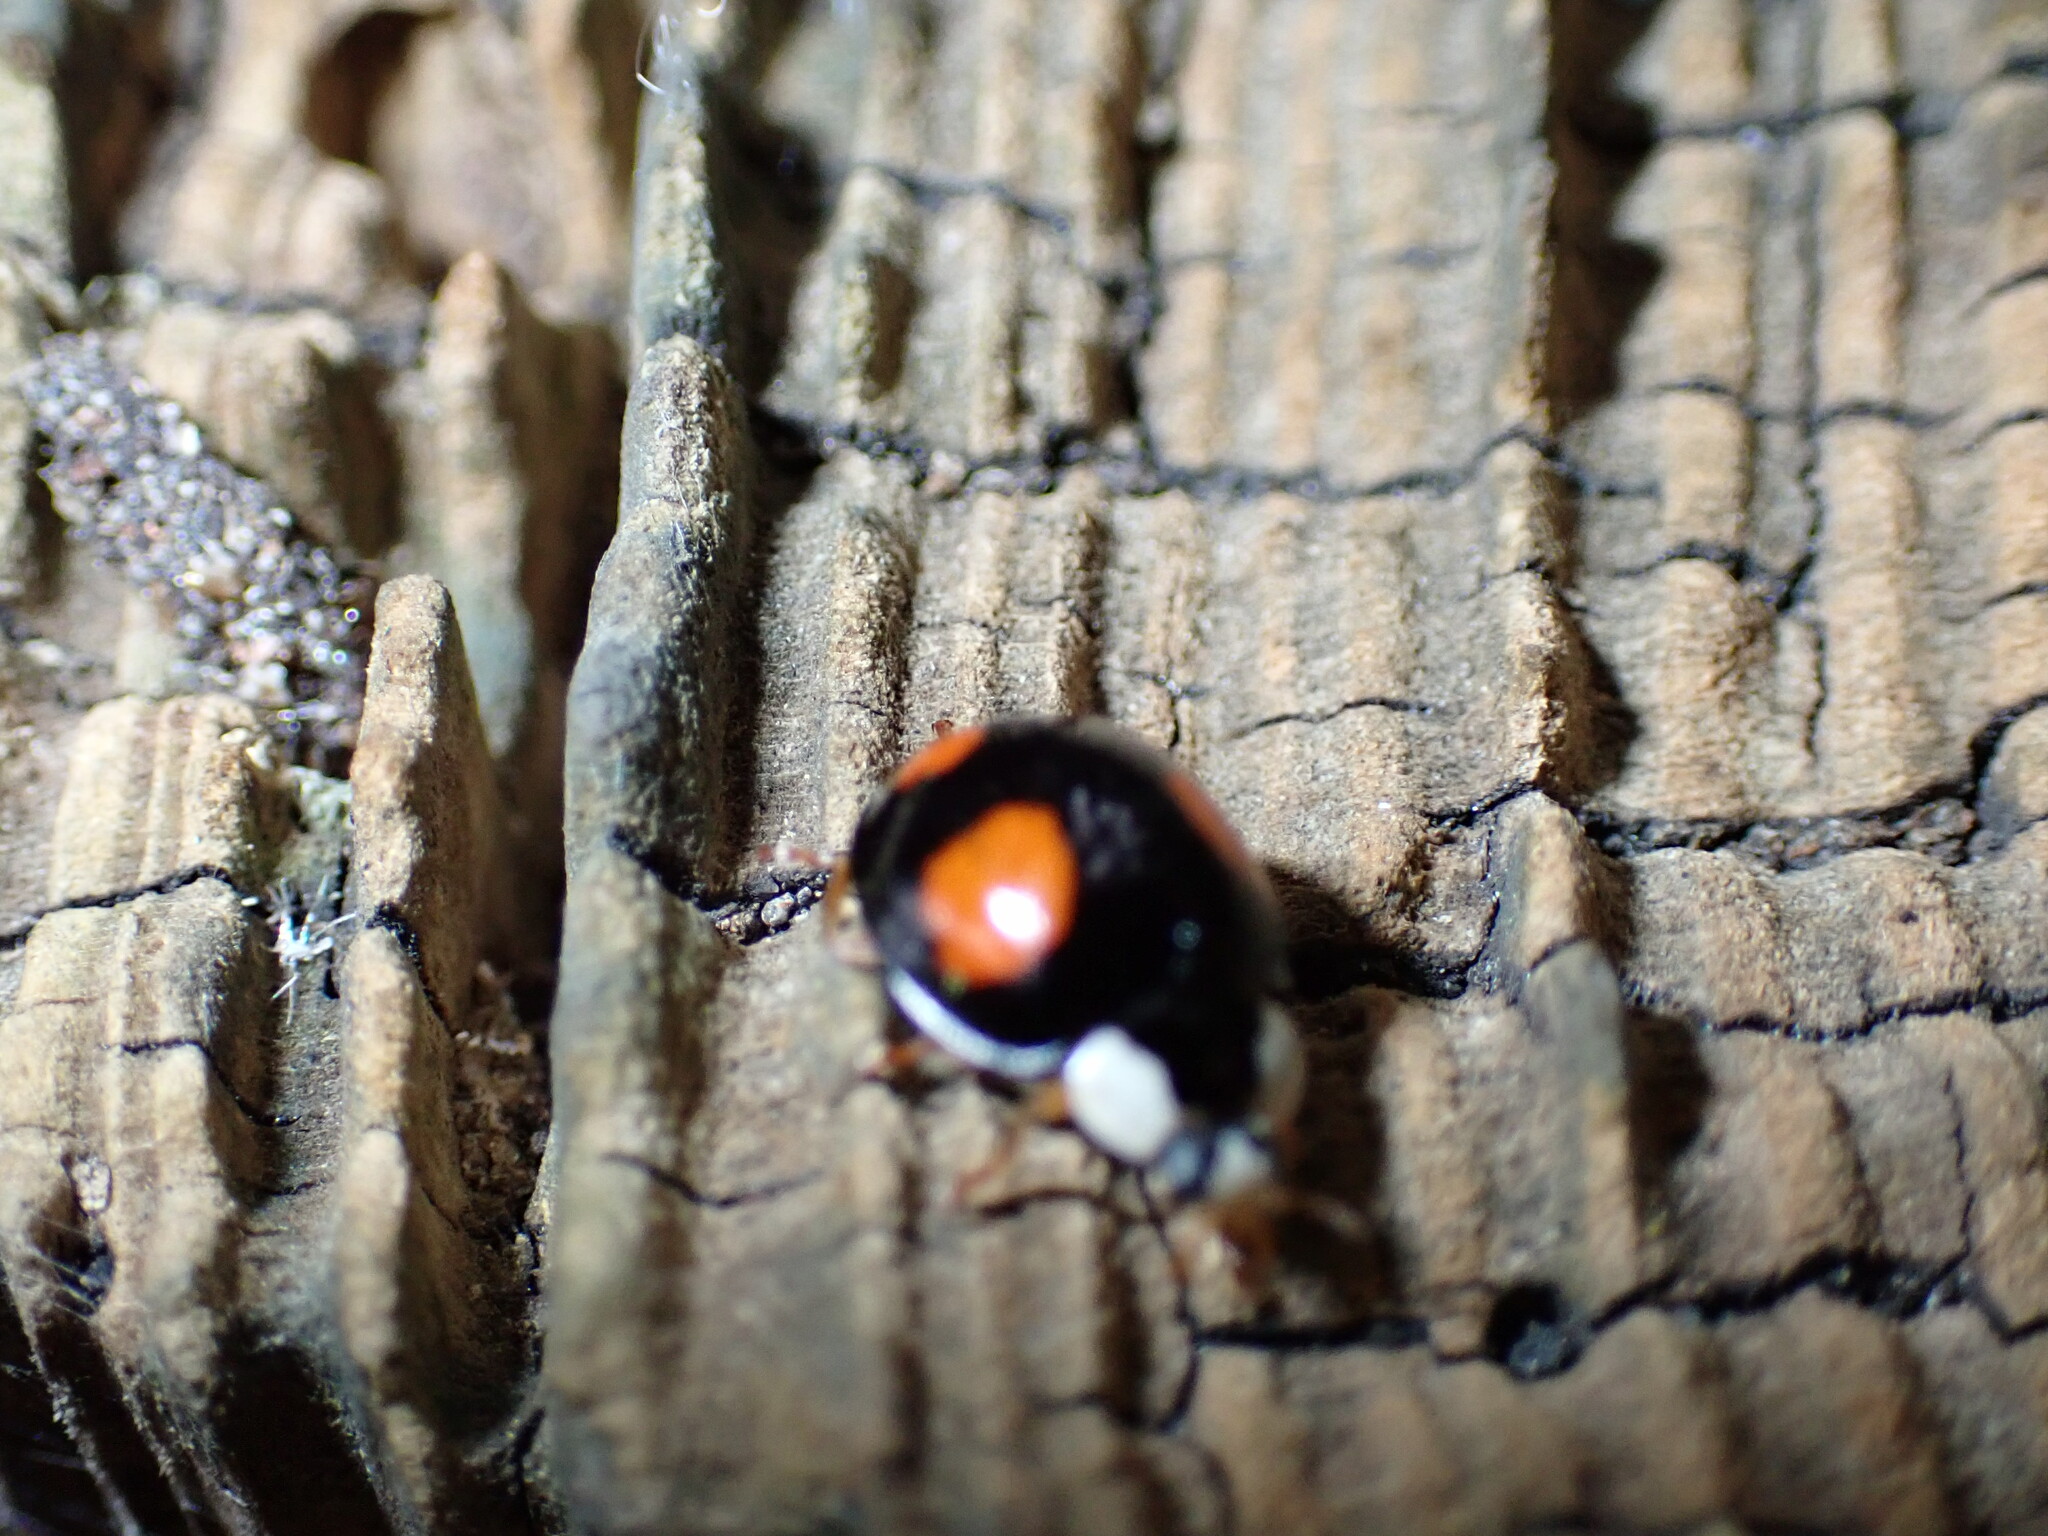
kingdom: Animalia
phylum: Arthropoda
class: Insecta
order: Coleoptera
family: Coccinellidae
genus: Harmonia
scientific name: Harmonia axyridis
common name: Harlequin ladybird
